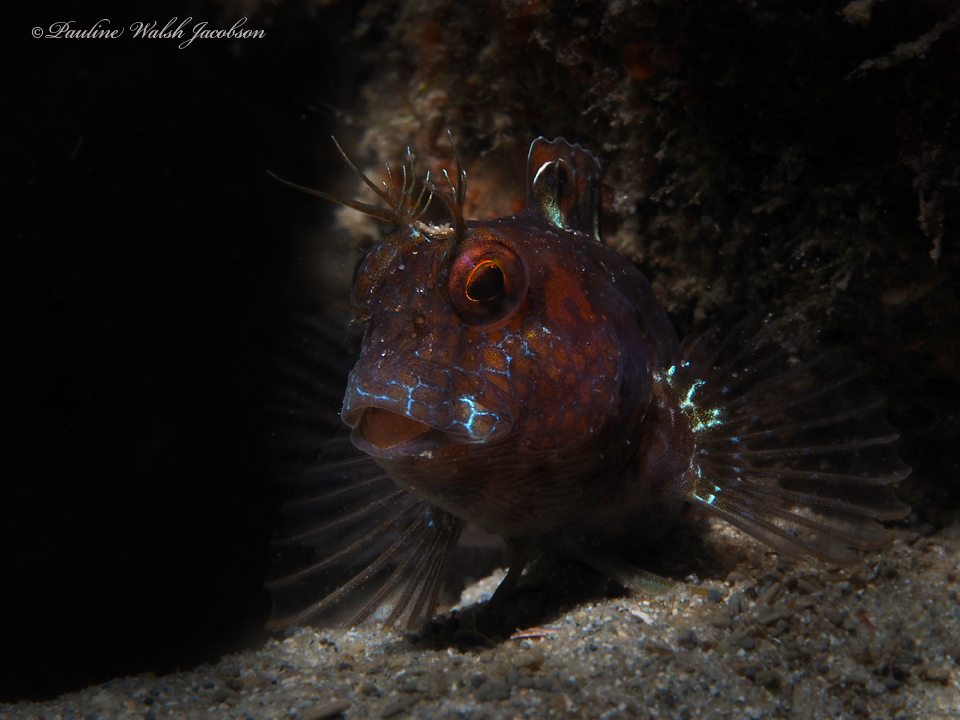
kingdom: Animalia
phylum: Chordata
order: Perciformes
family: Blenniidae
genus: Parablennius
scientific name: Parablennius marmoreus
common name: Seaweed blenny
